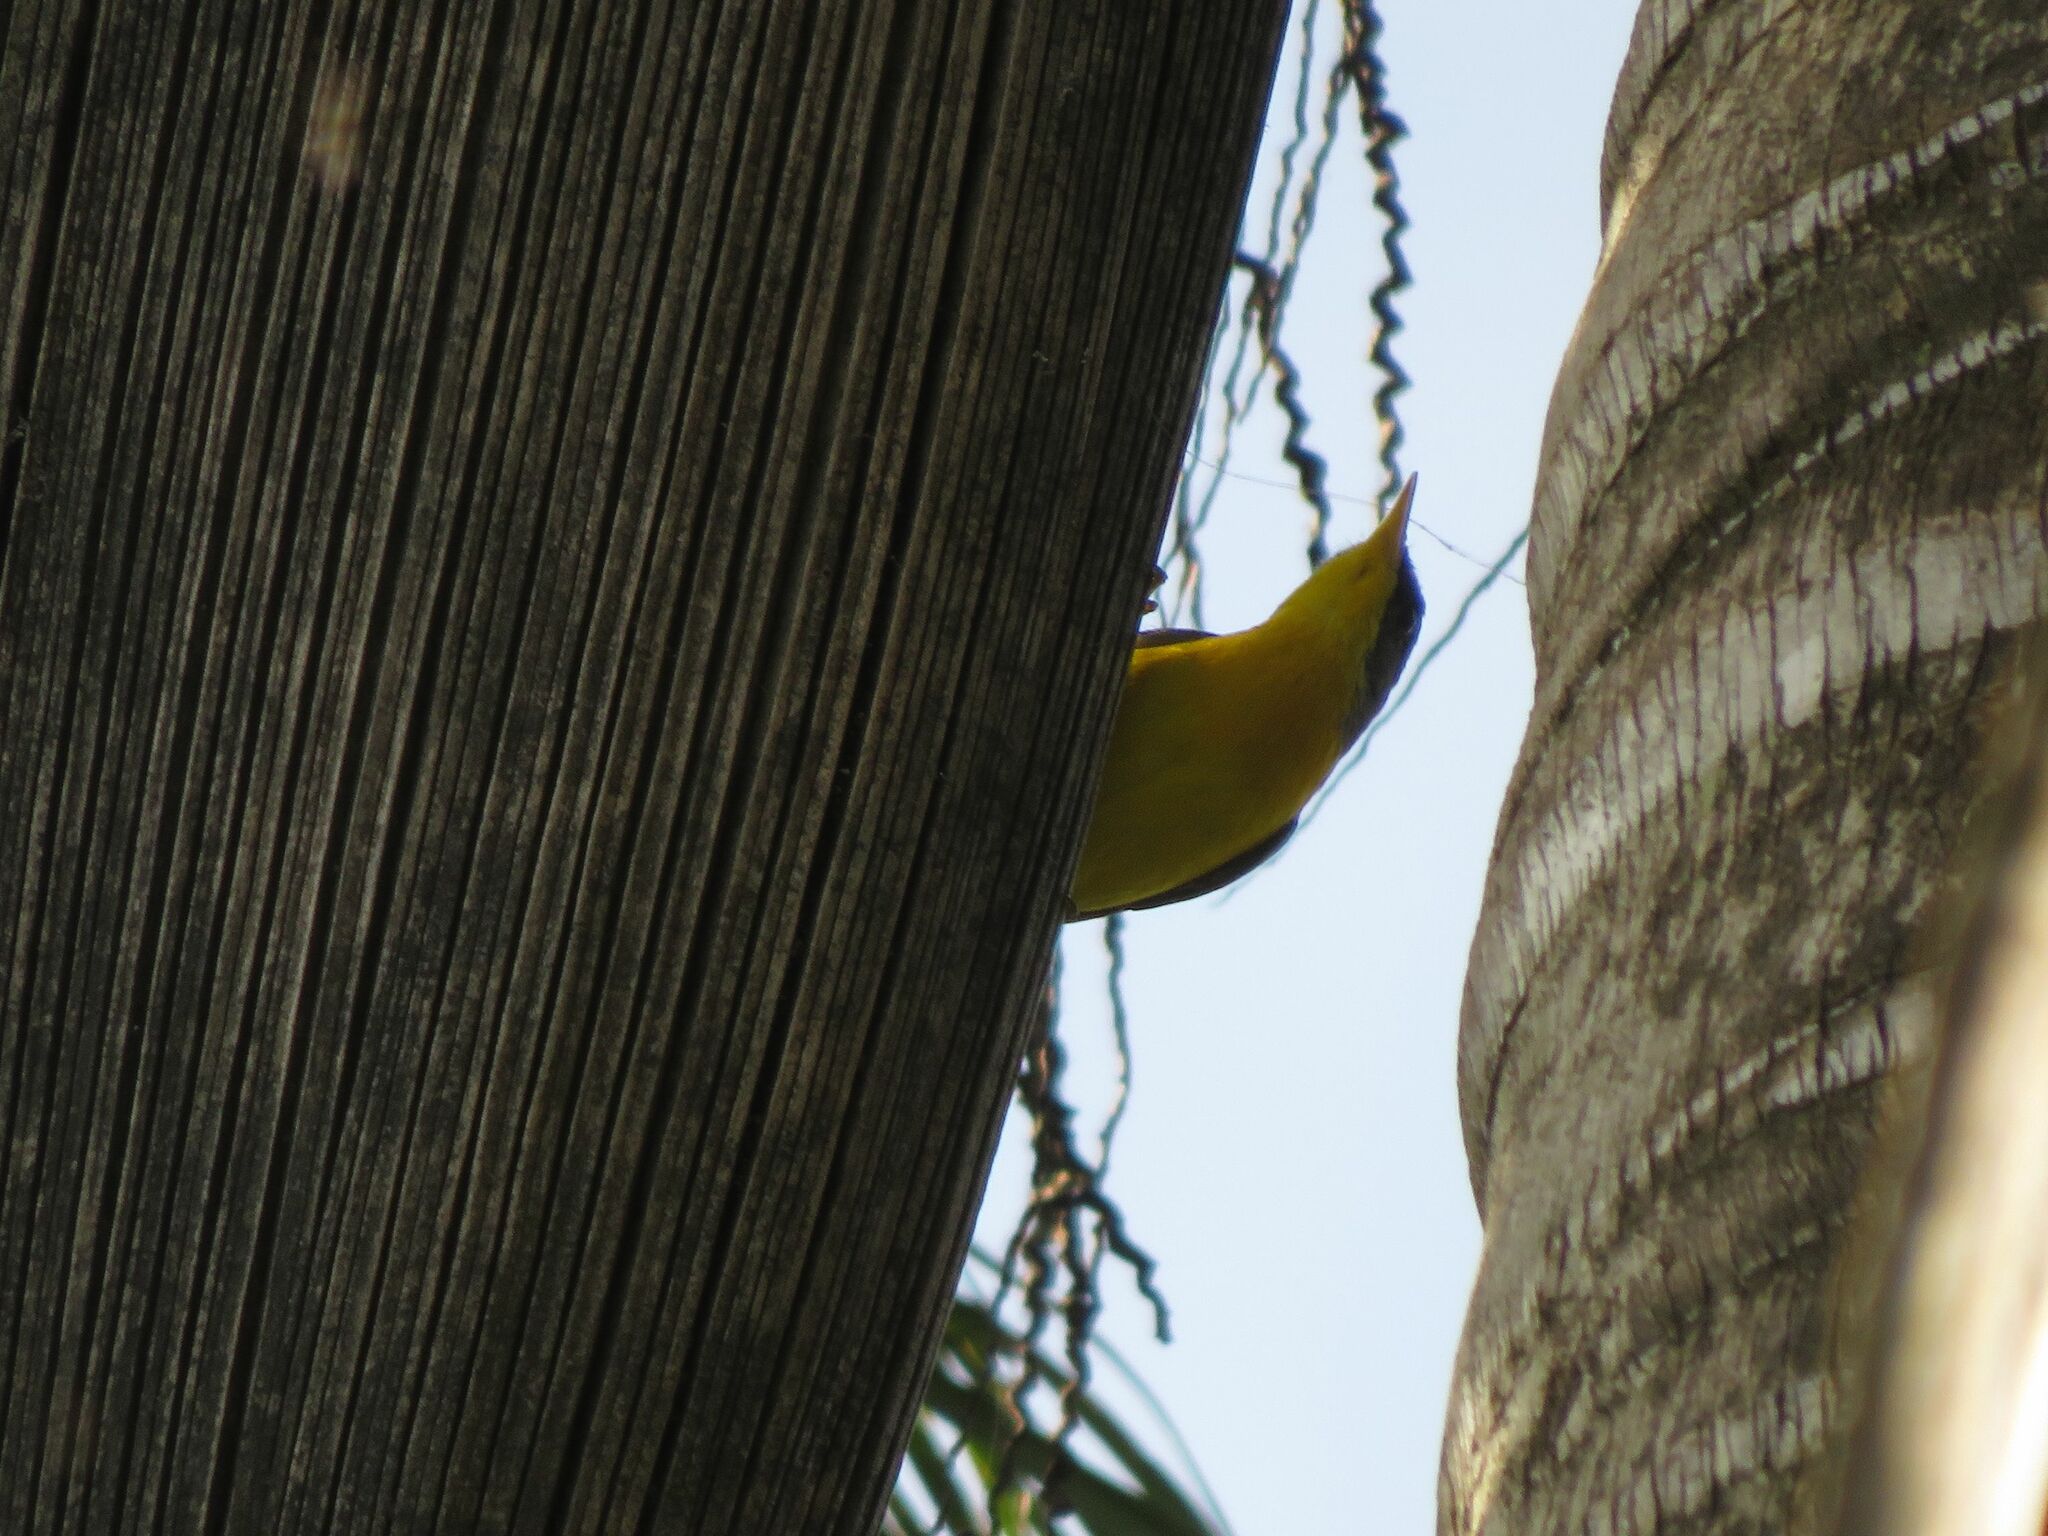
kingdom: Animalia
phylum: Chordata
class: Aves
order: Passeriformes
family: Parulidae
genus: Setophaga
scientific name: Setophaga pitiayumi
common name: Tropical parula
